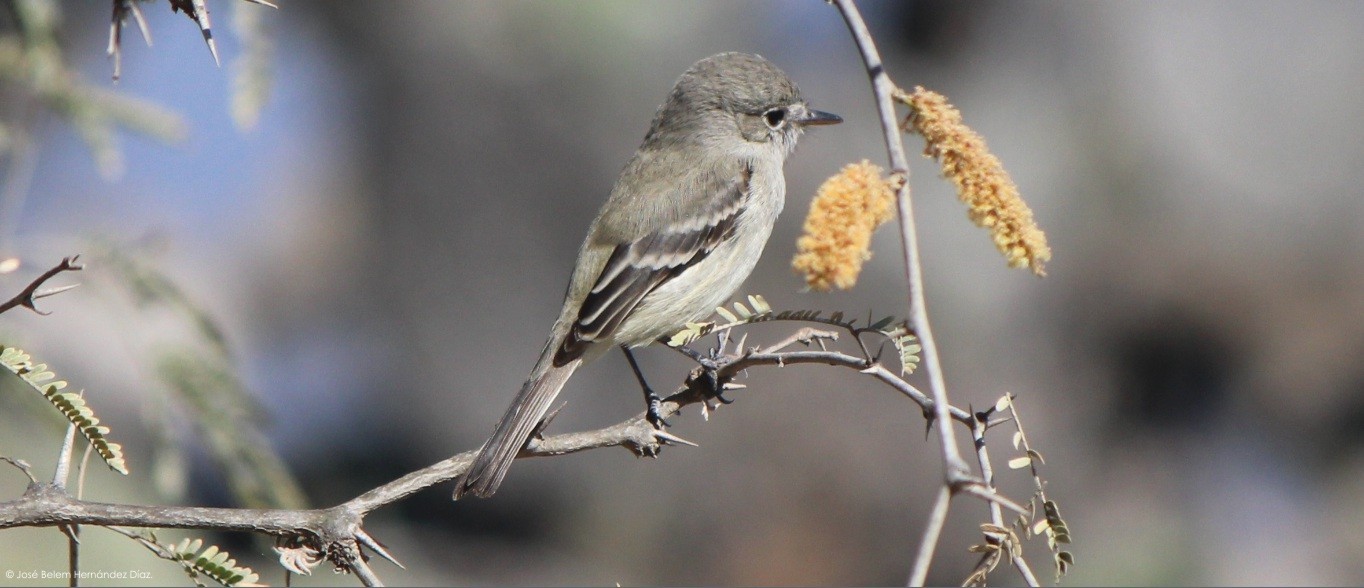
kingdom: Animalia
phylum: Chordata
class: Aves
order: Passeriformes
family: Tyrannidae
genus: Empidonax
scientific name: Empidonax wrightii
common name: Gray flycatcher
